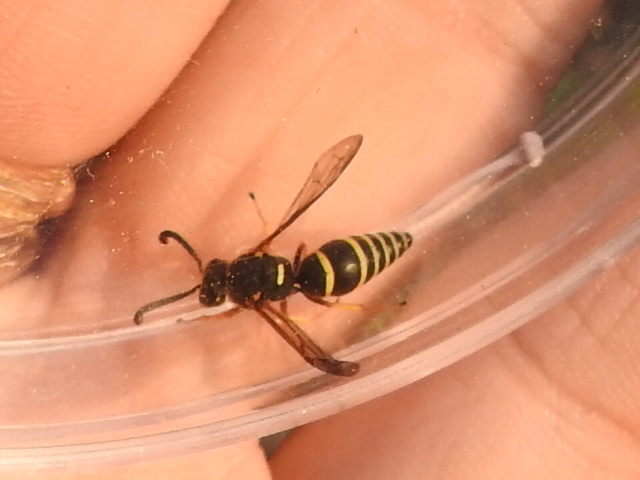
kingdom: Animalia
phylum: Arthropoda
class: Insecta
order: Hymenoptera
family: Eumenidae
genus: Euodynerus
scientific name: Euodynerus
